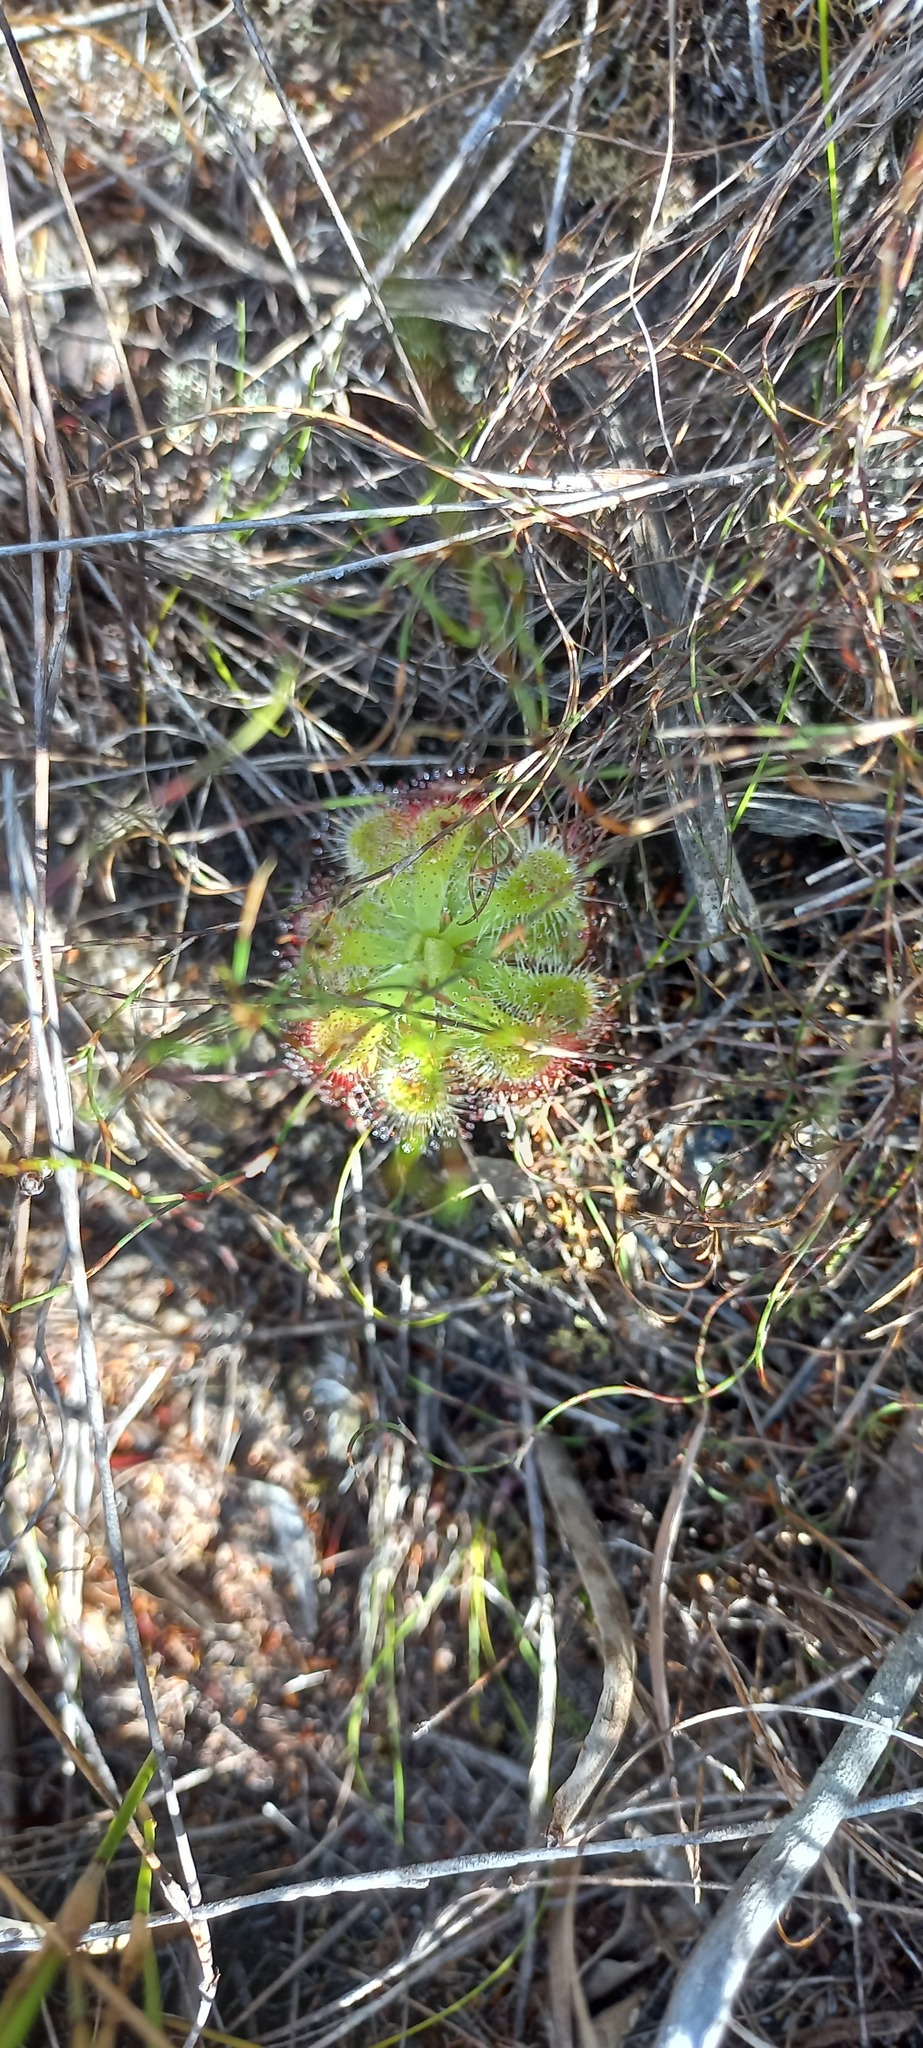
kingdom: Plantae
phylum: Tracheophyta
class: Magnoliopsida
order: Caryophyllales
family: Droseraceae
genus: Drosera
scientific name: Drosera xerophila
